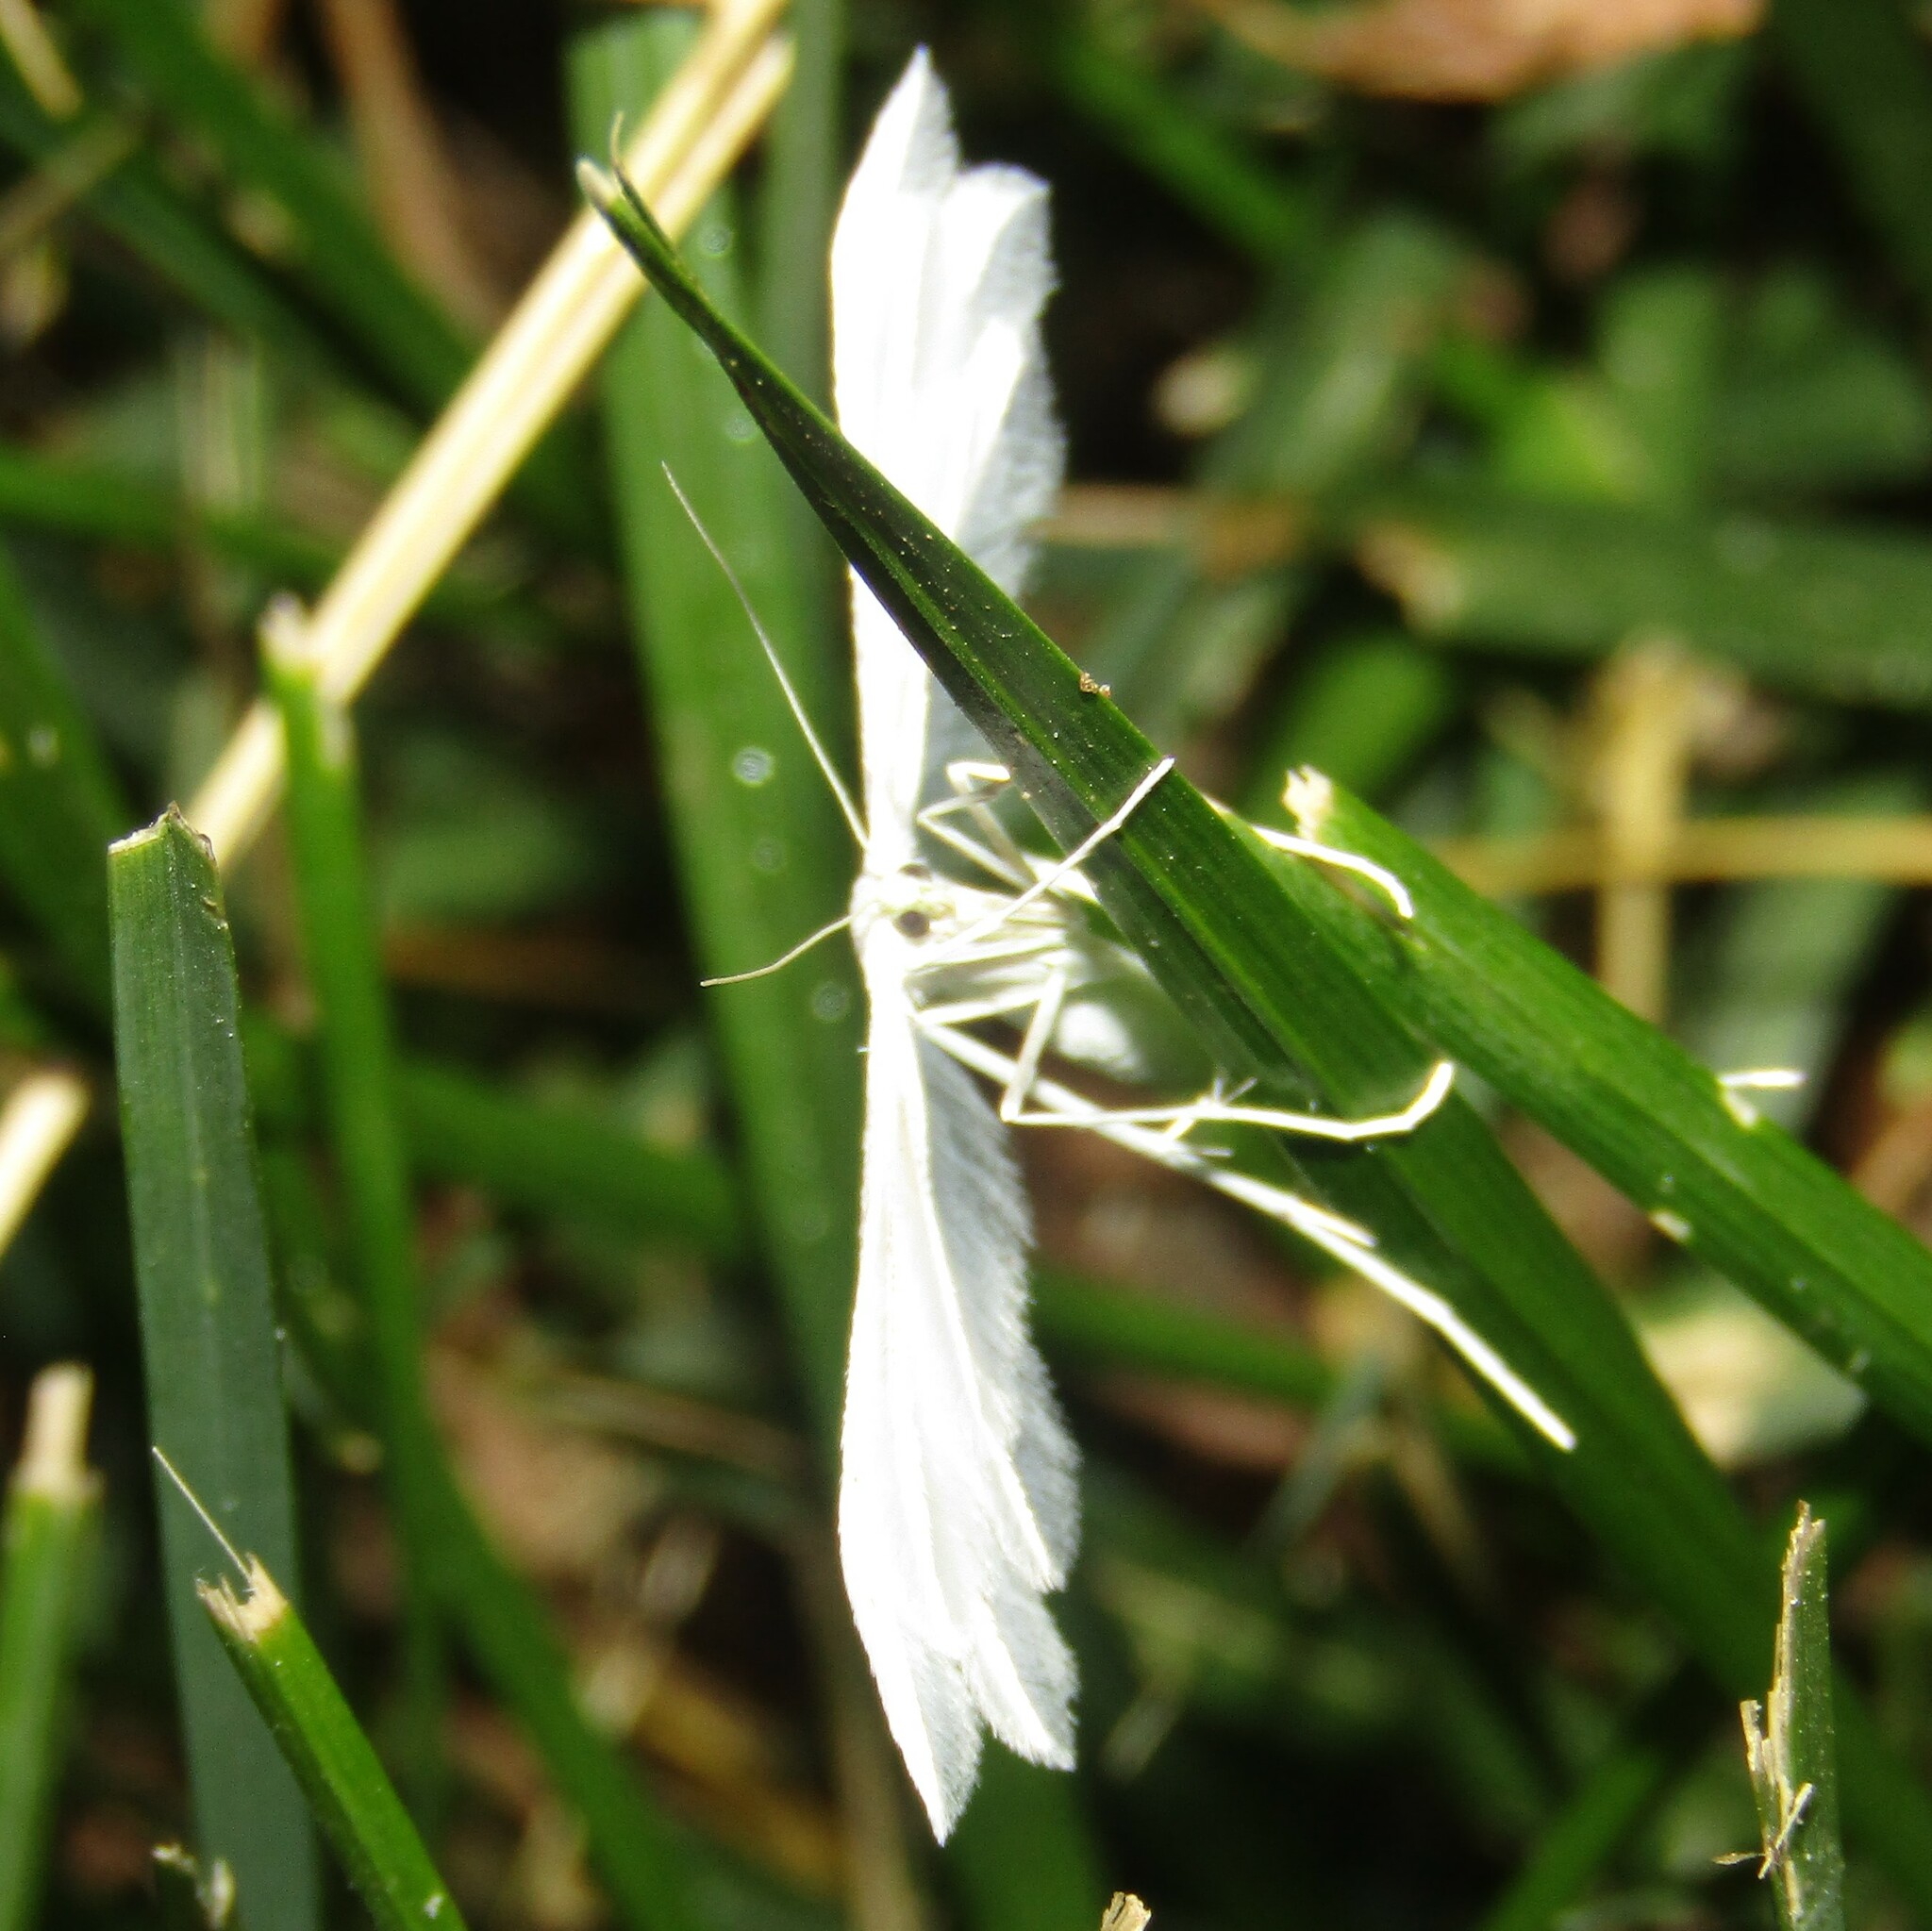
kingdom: Animalia
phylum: Arthropoda
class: Insecta
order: Lepidoptera
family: Pterophoridae
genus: Pterophorus
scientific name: Pterophorus pentadactyla
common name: White plume moth
